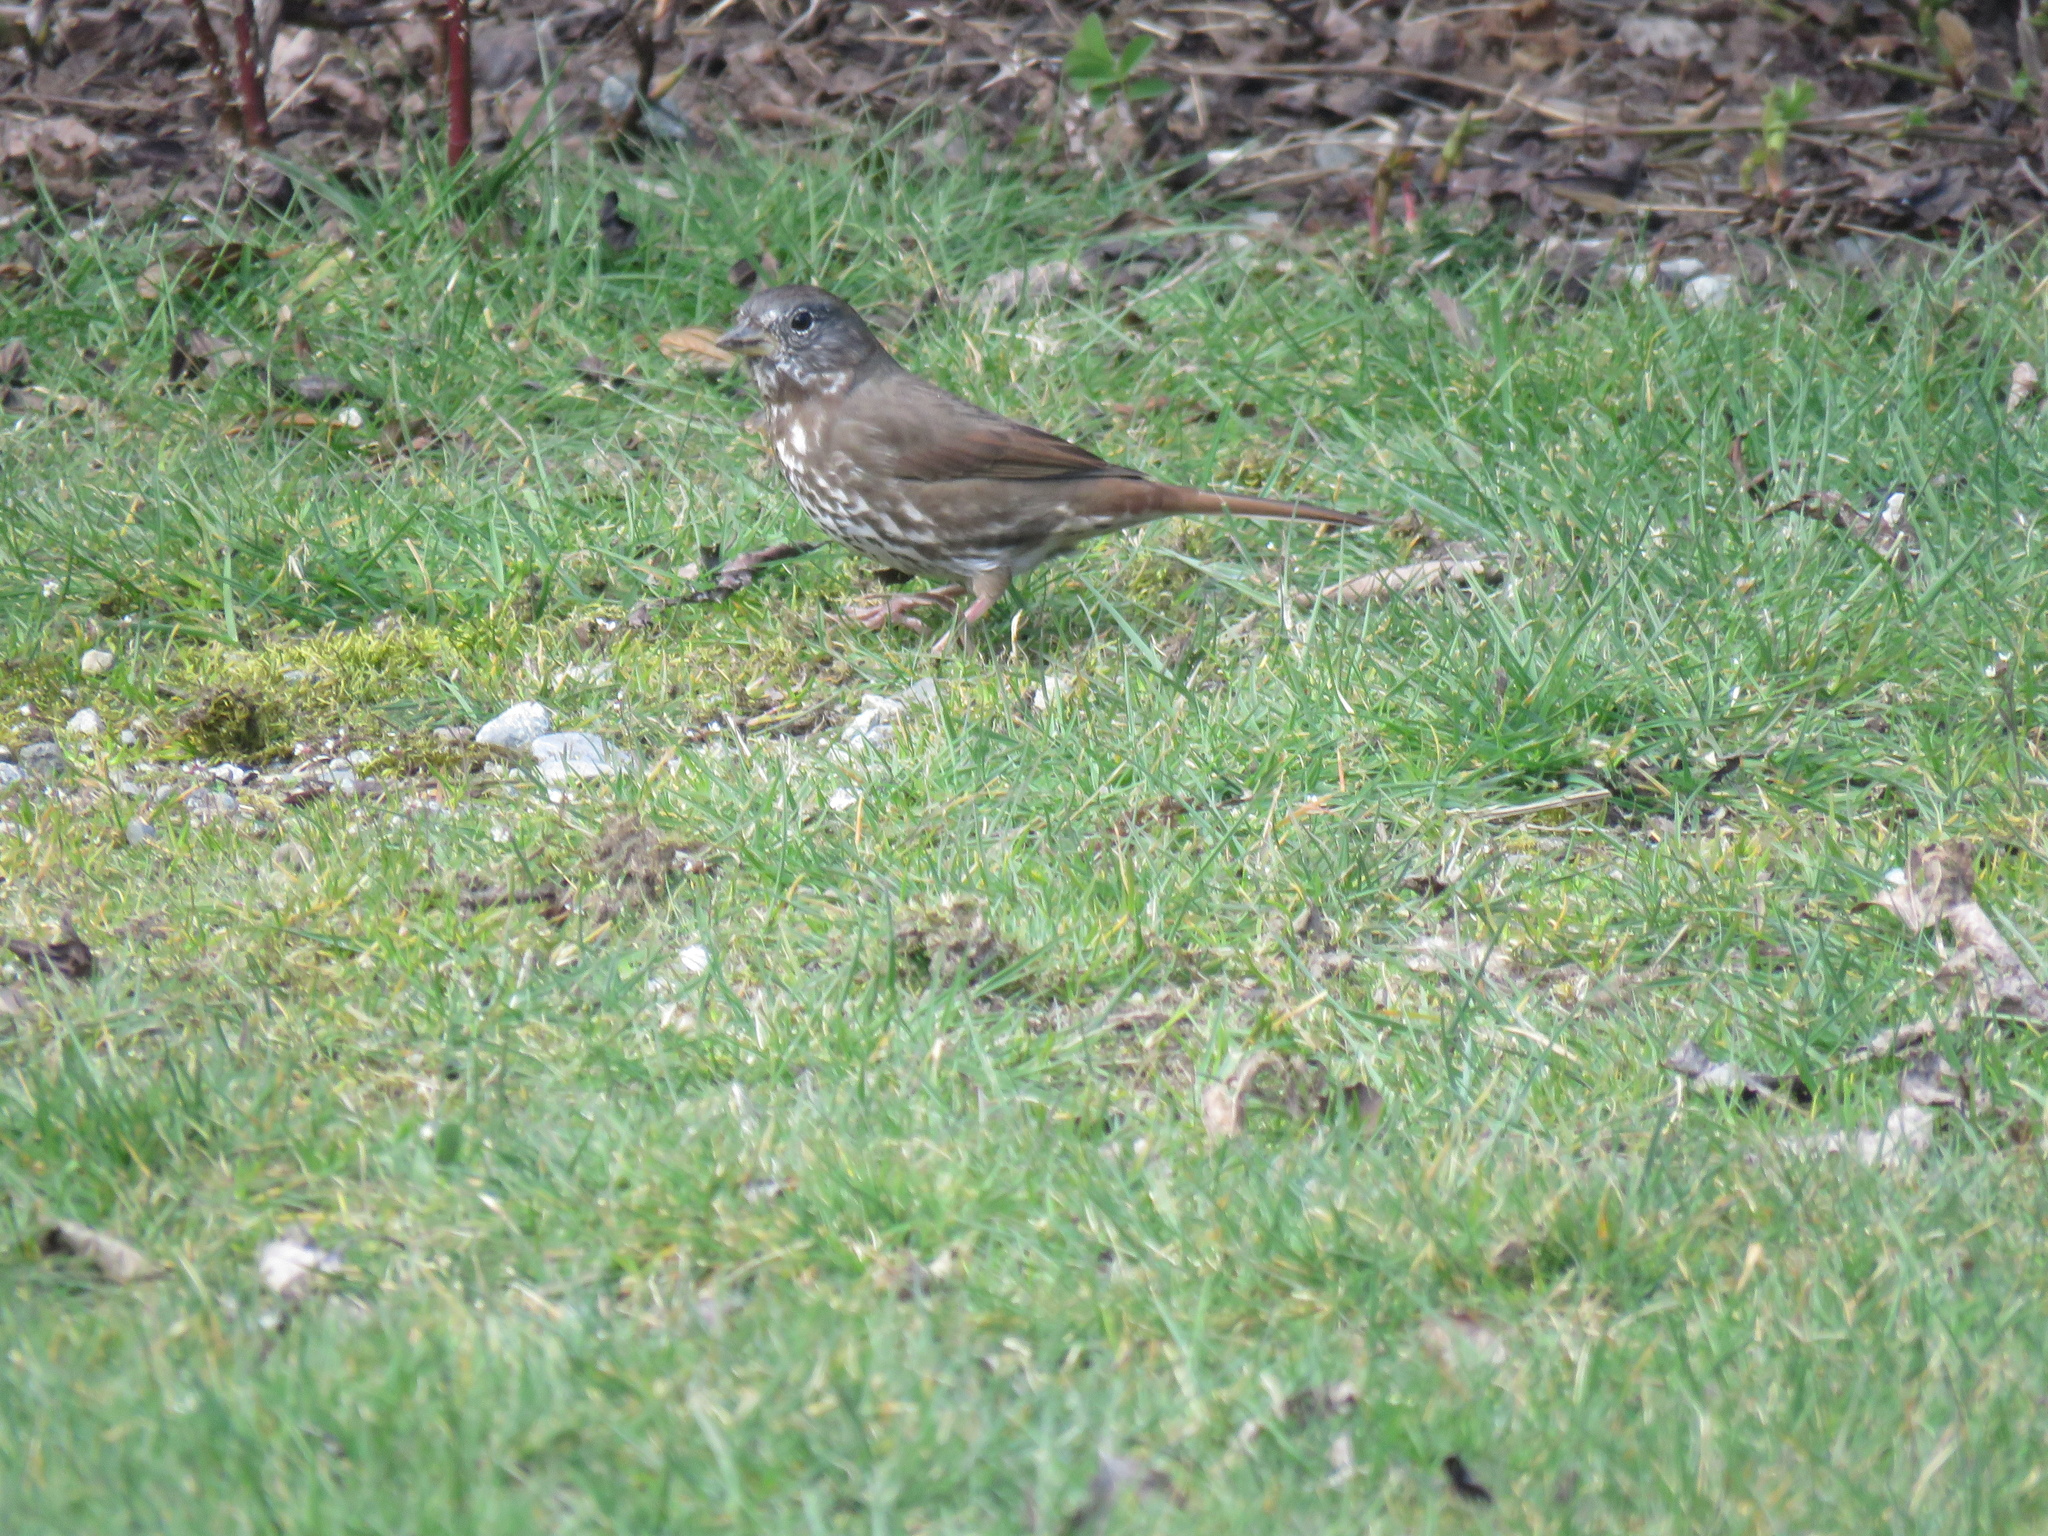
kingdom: Animalia
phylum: Chordata
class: Aves
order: Passeriformes
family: Passerellidae
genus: Passerella
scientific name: Passerella iliaca
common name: Fox sparrow
